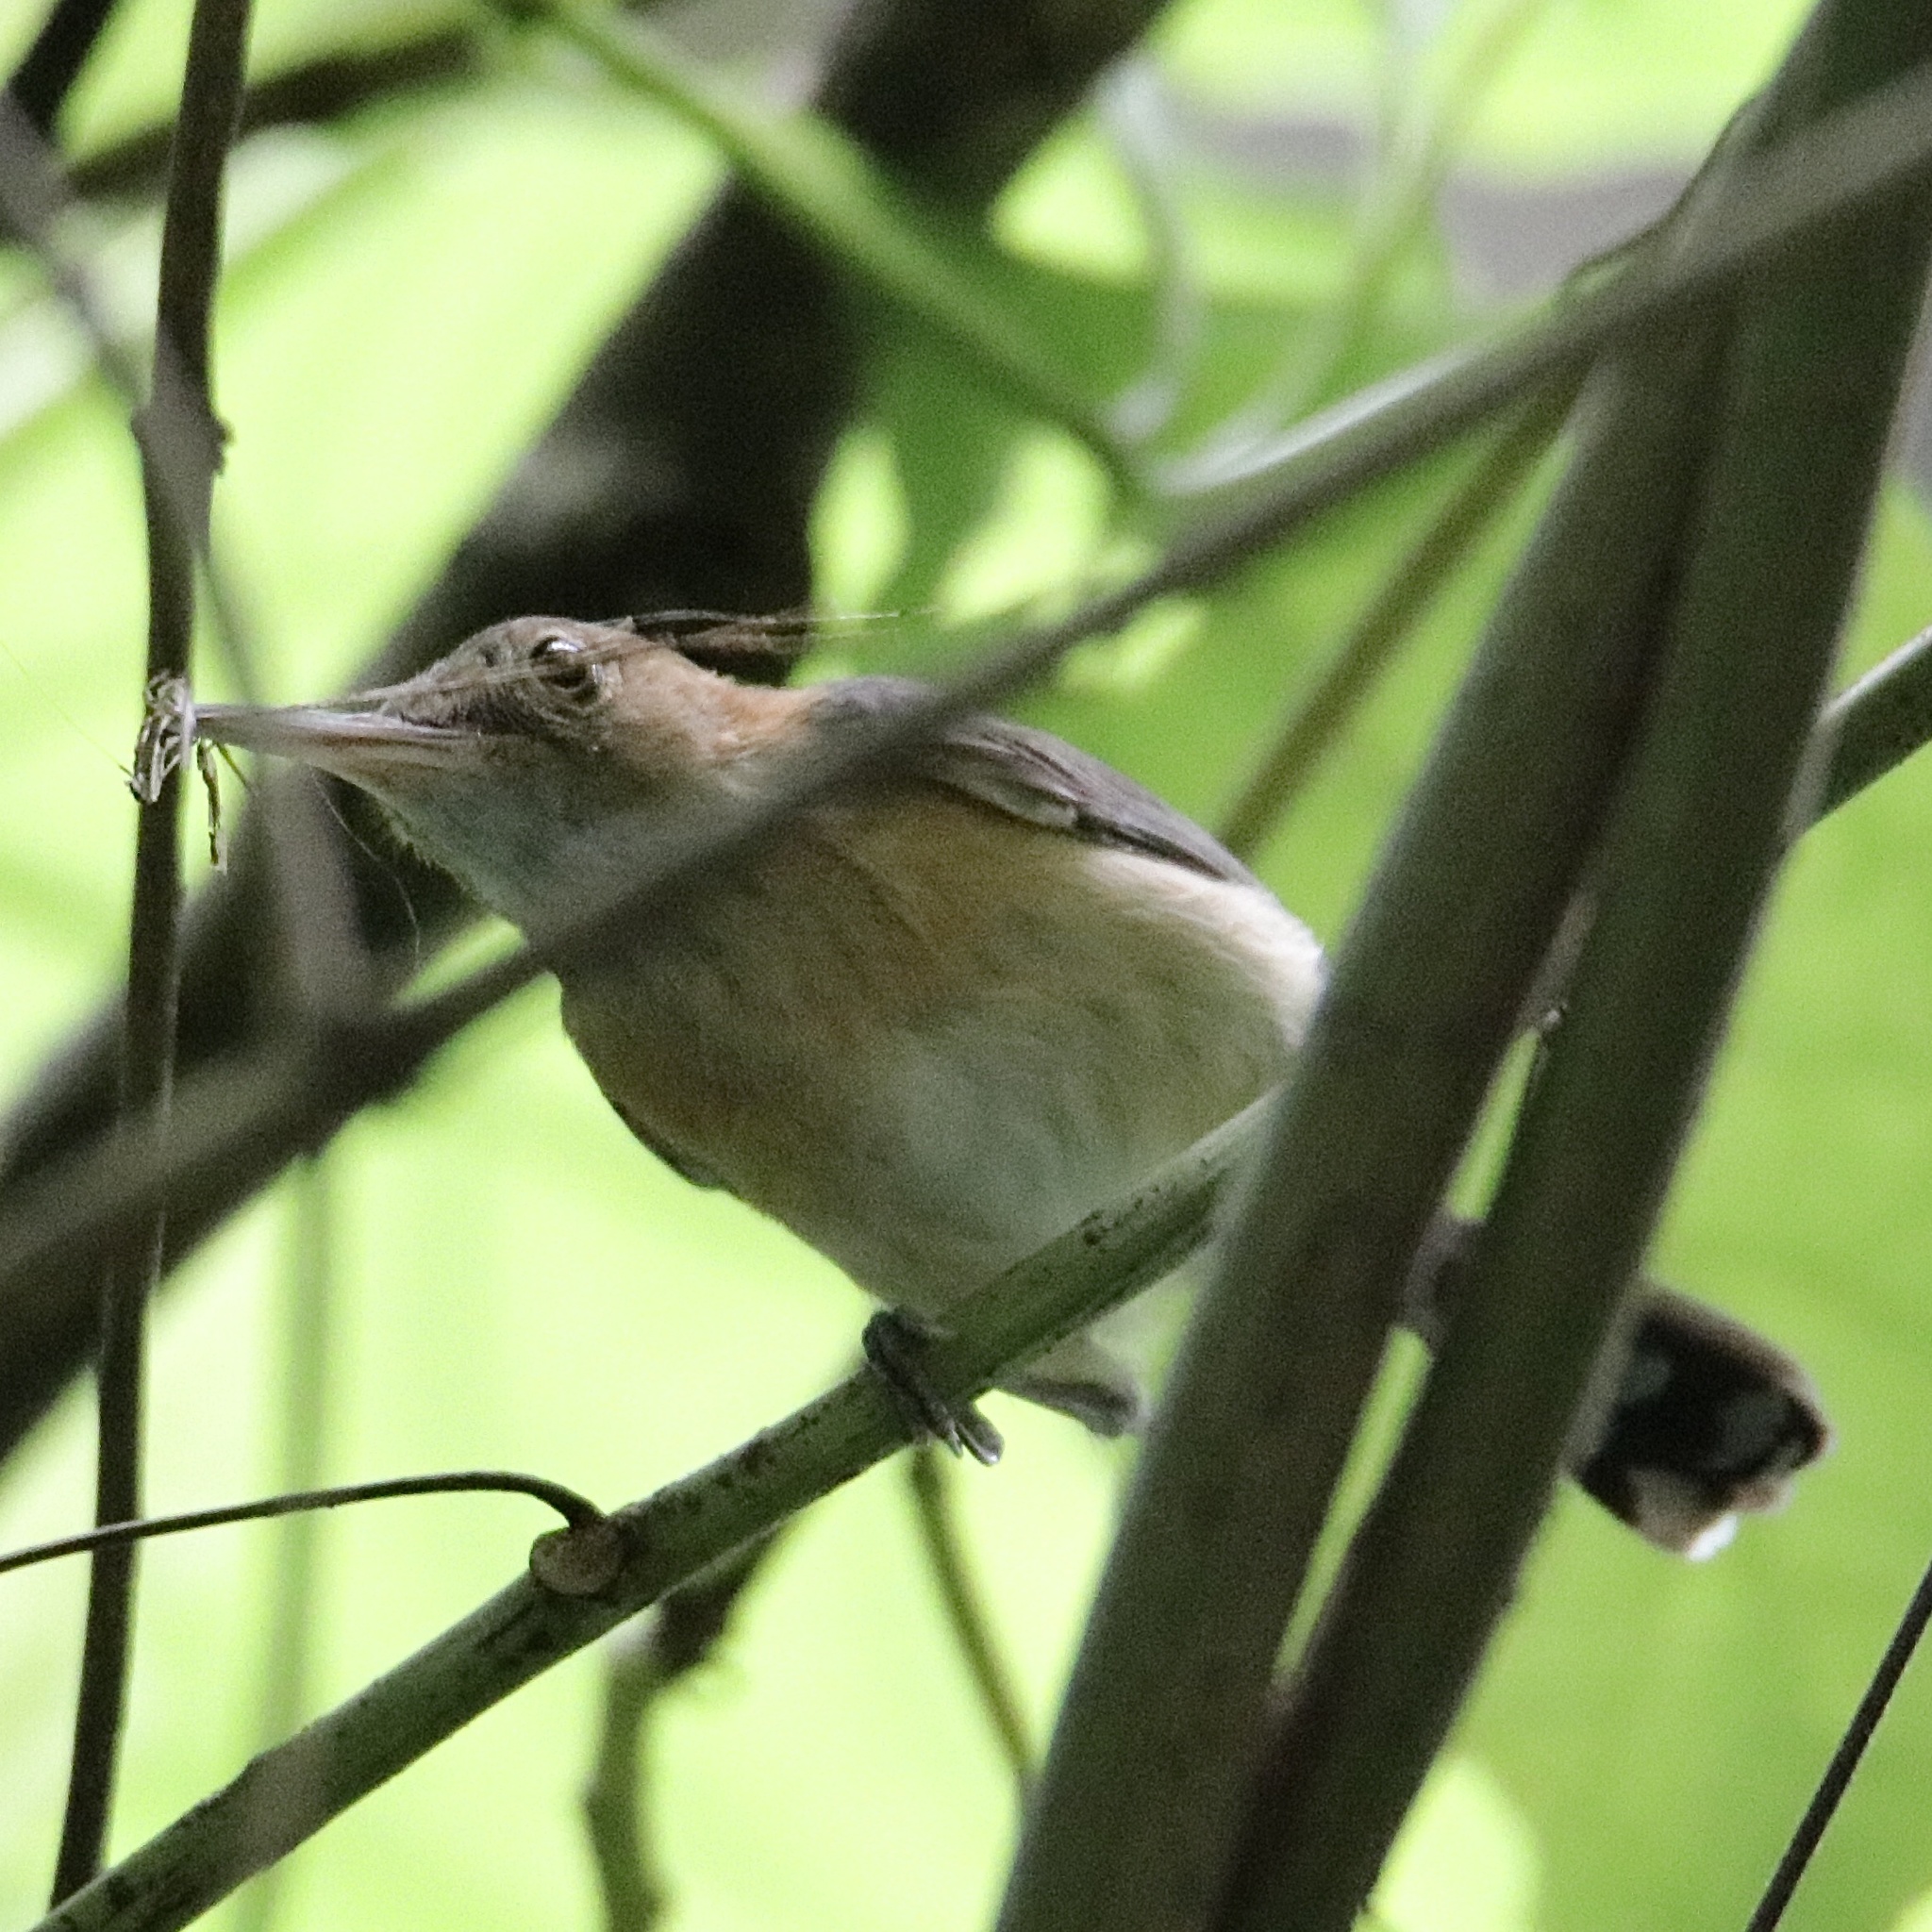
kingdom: Animalia
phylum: Chordata
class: Aves
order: Passeriformes
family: Polioptilidae
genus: Ramphocaenus
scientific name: Ramphocaenus melanurus
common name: Long-billed gnatwren
